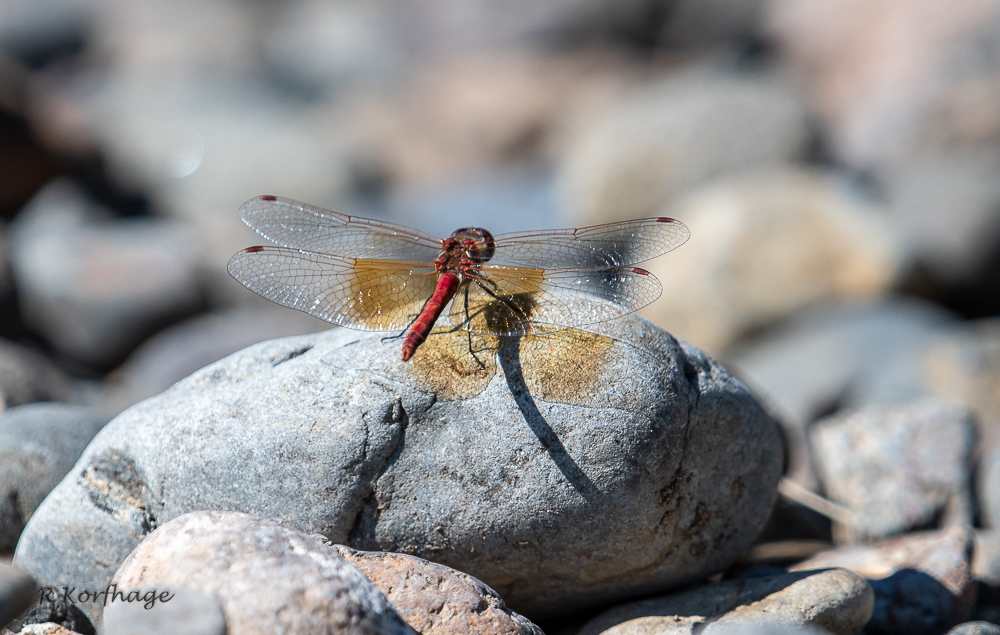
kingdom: Animalia
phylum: Arthropoda
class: Insecta
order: Odonata
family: Libellulidae
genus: Sympetrum
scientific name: Sympetrum semicinctum
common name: Band-winged meadowhawk
